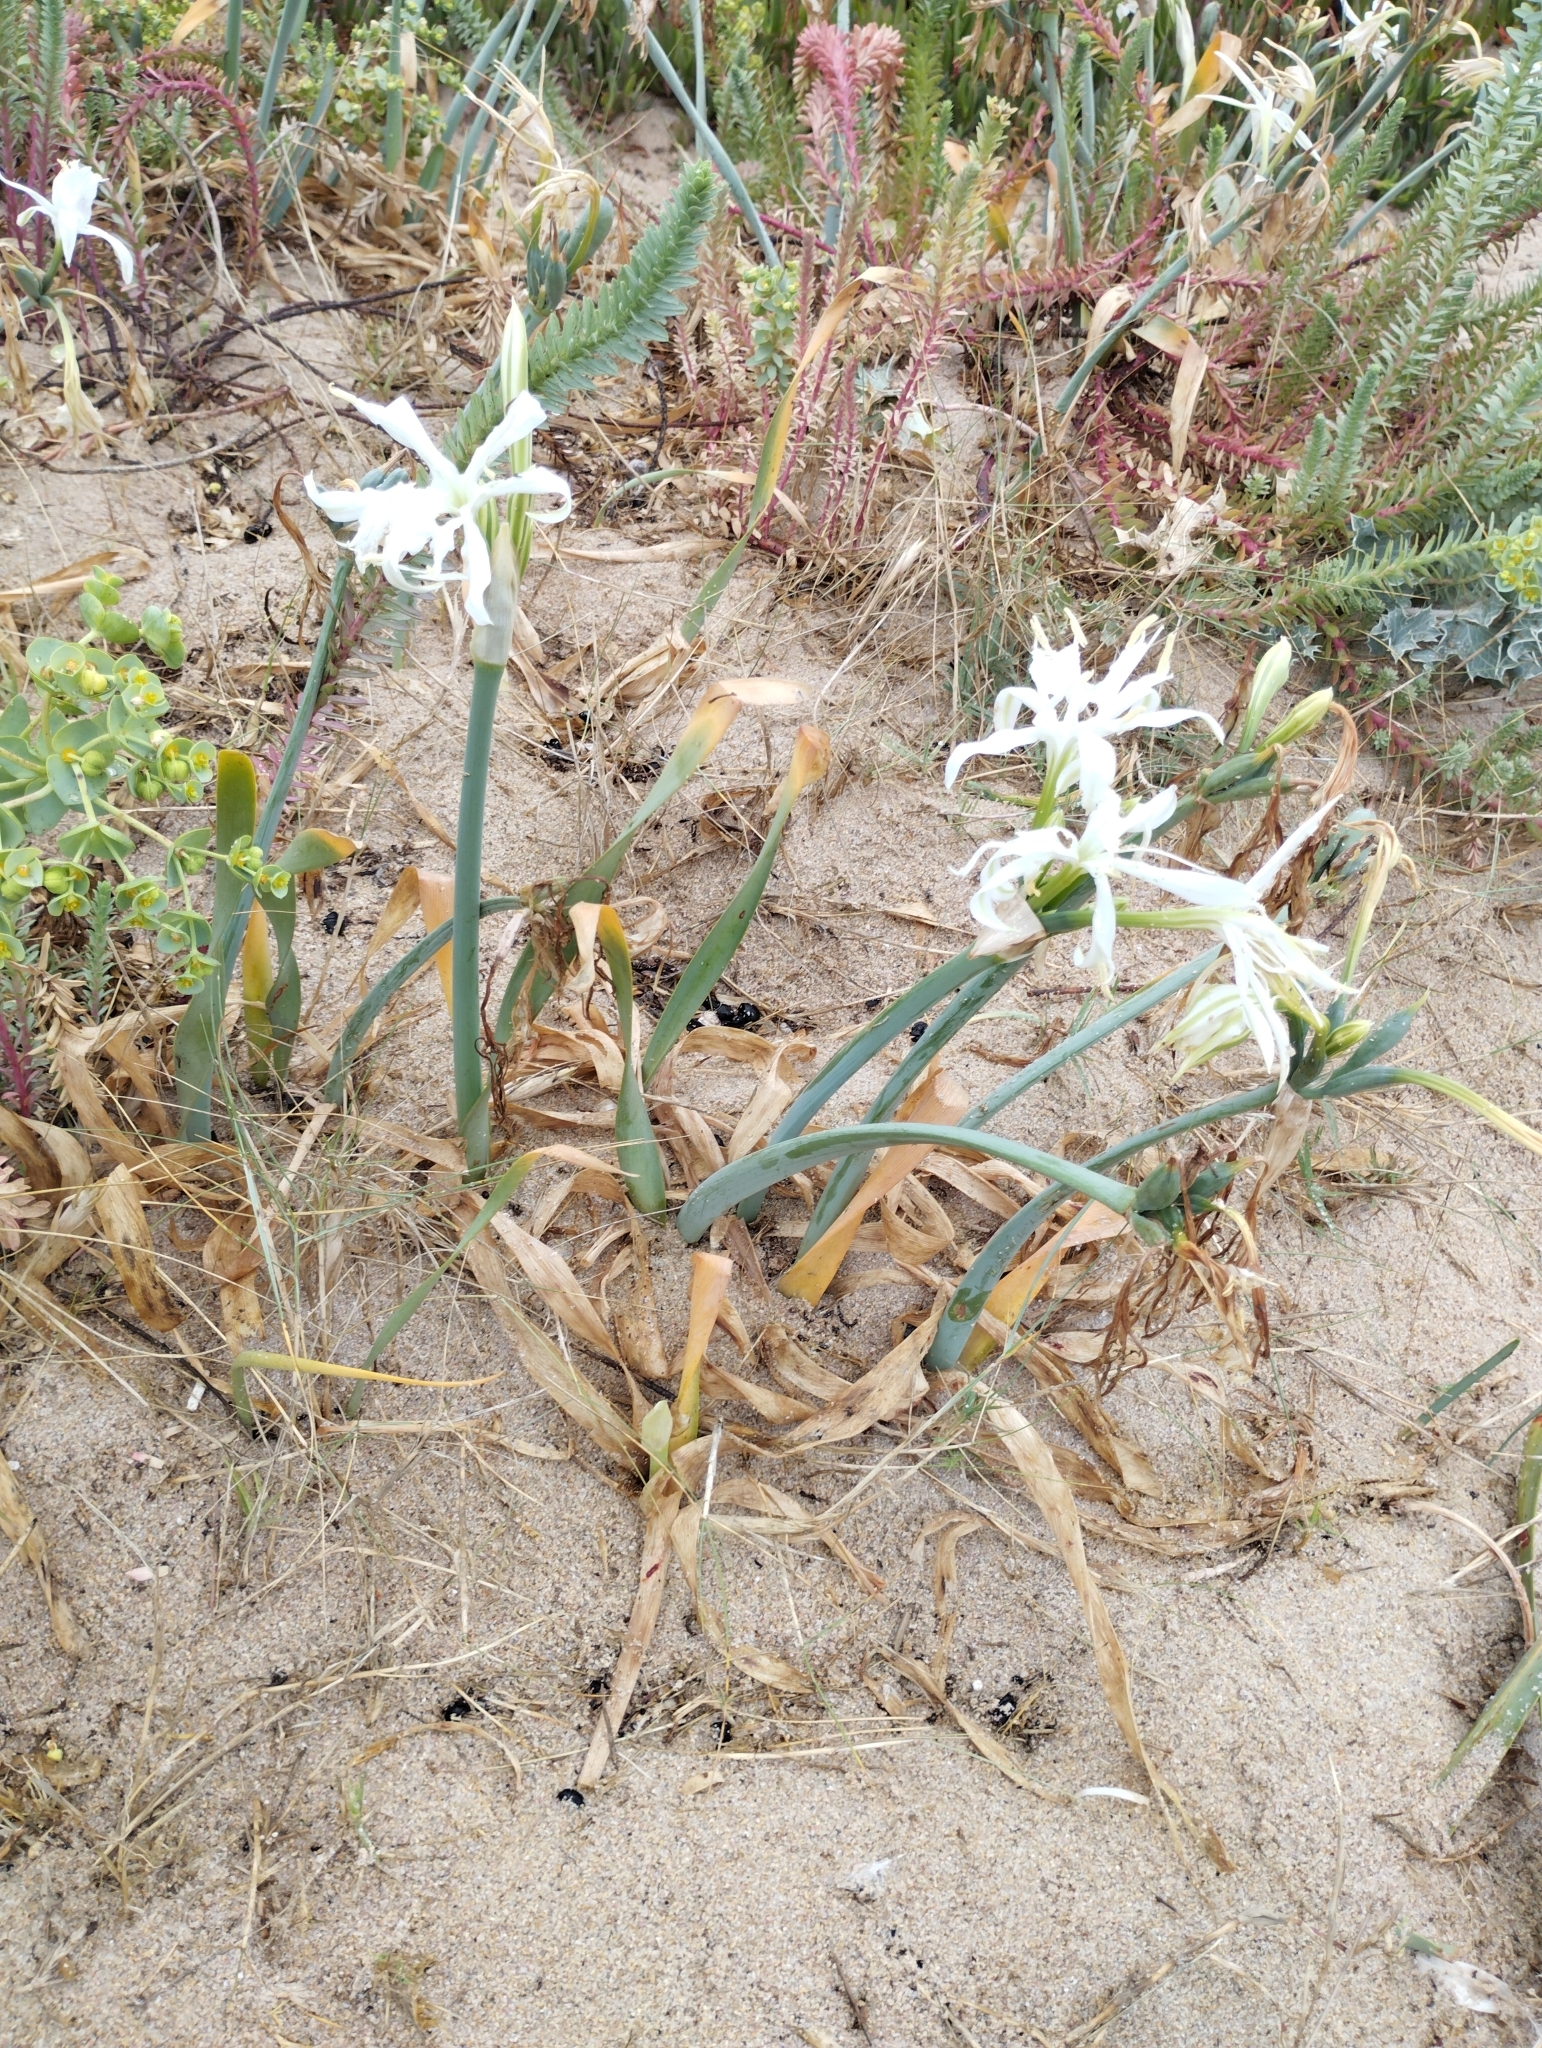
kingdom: Plantae
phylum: Tracheophyta
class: Liliopsida
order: Asparagales
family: Amaryllidaceae
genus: Pancratium
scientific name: Pancratium maritimum
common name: Sea-daffodil
